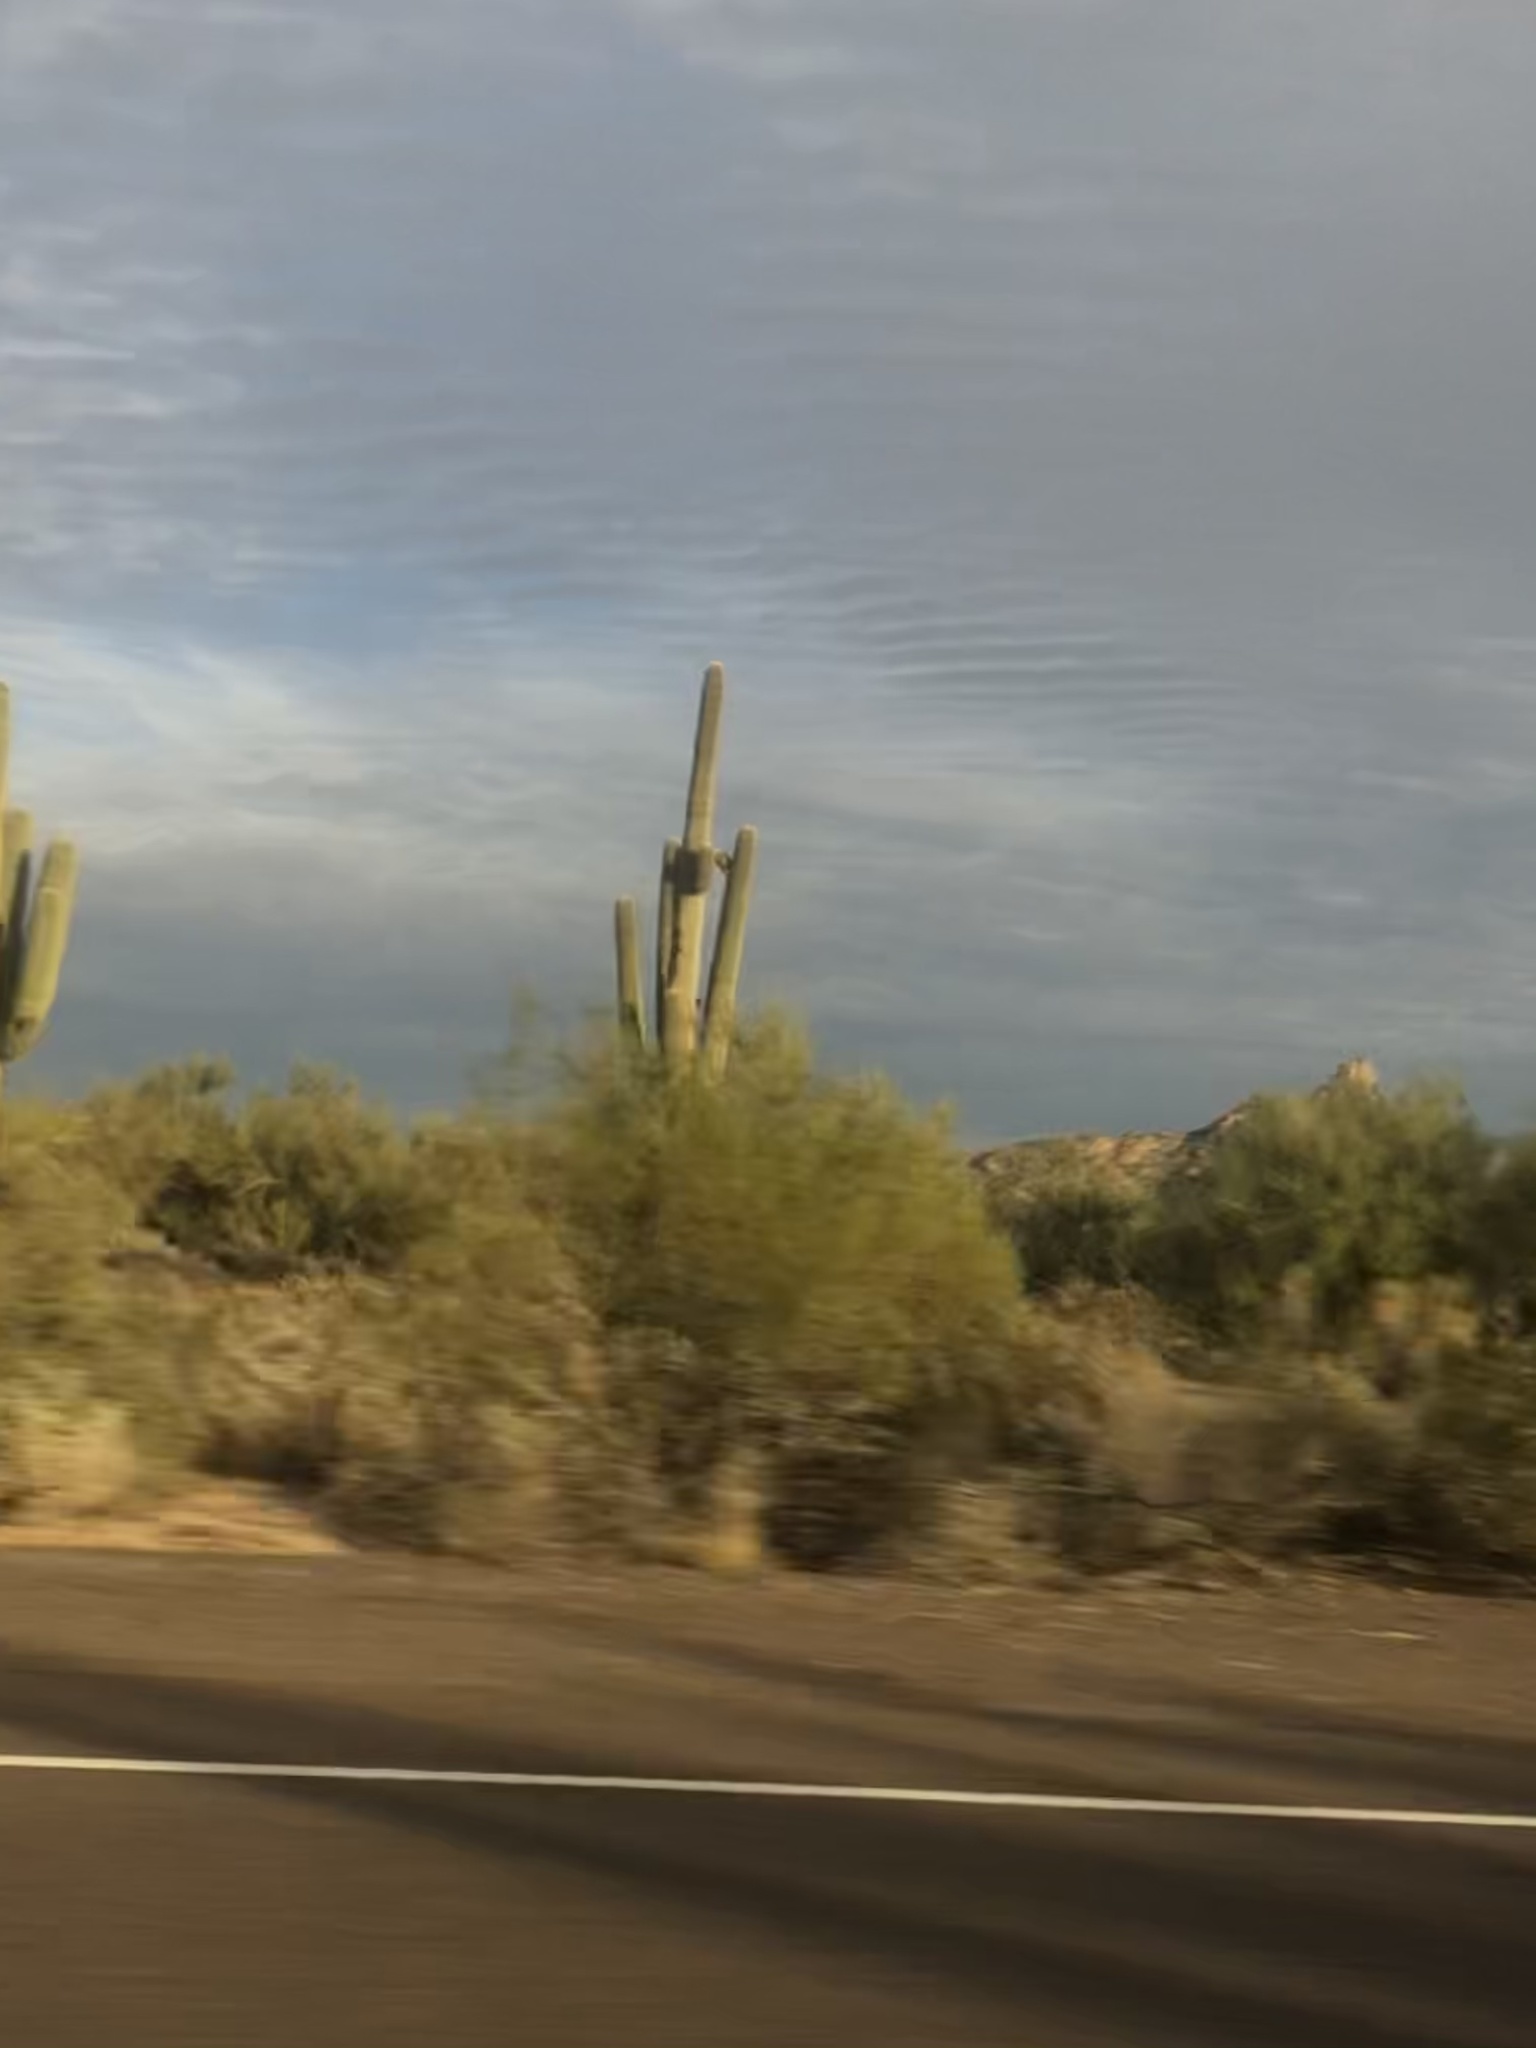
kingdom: Plantae
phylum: Tracheophyta
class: Magnoliopsida
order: Caryophyllales
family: Cactaceae
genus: Carnegiea
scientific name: Carnegiea gigantea
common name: Saguaro
